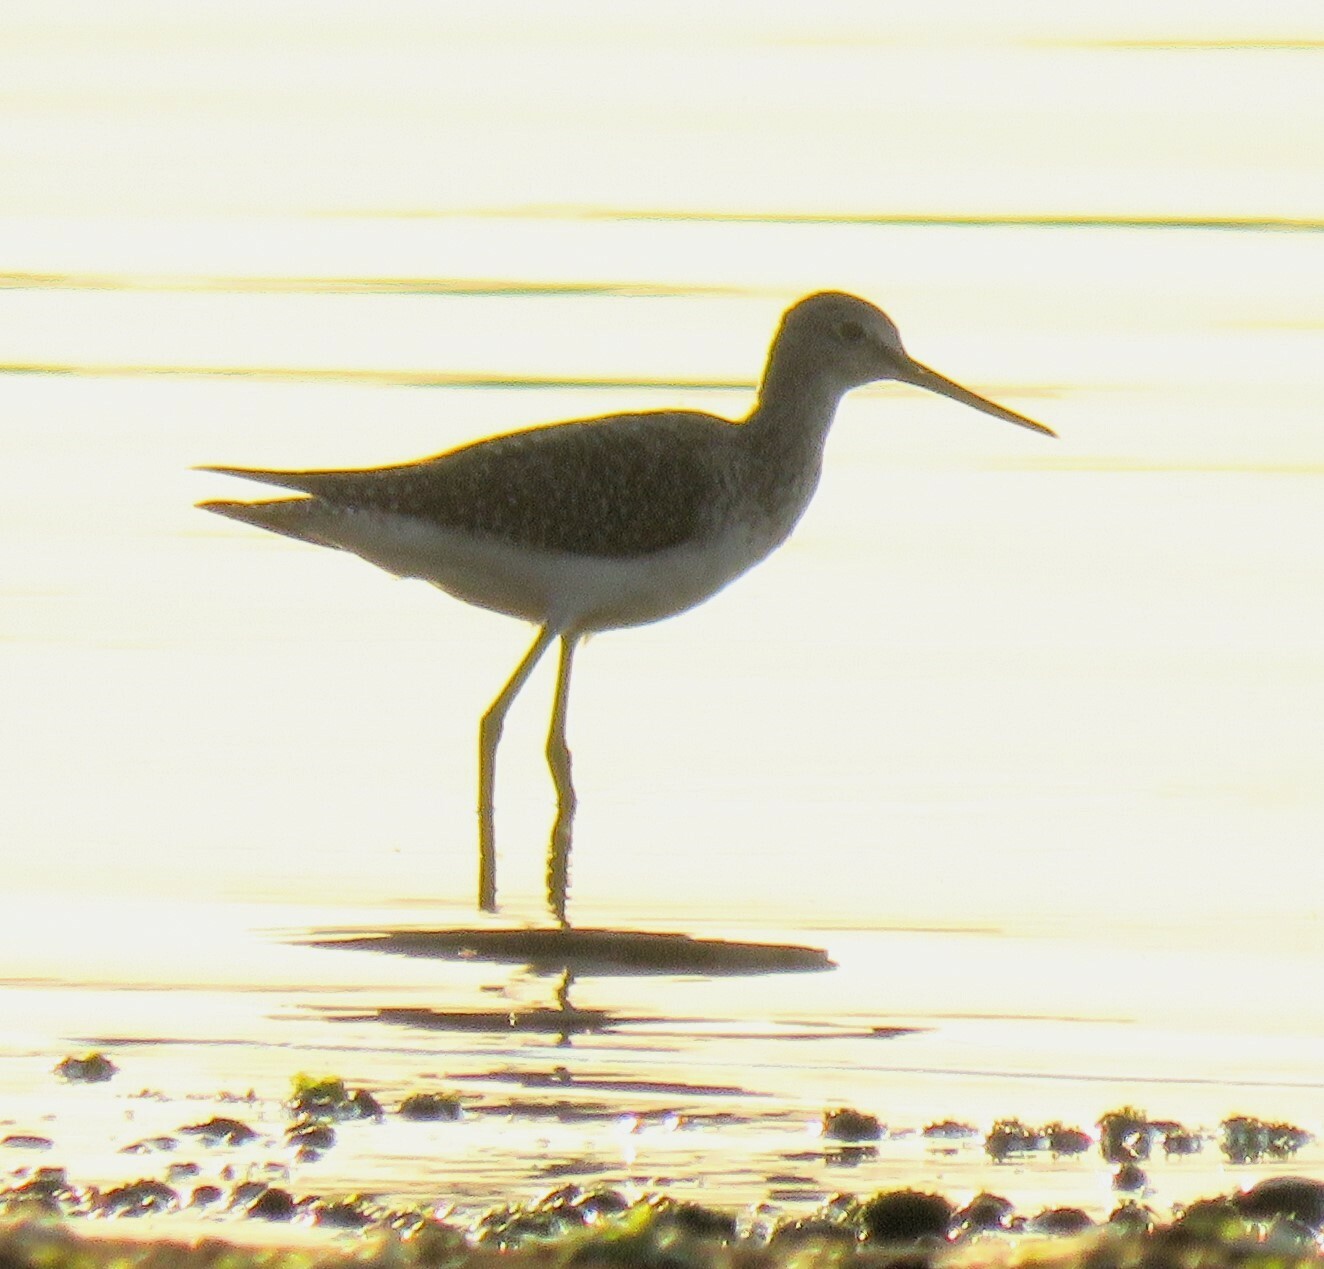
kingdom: Animalia
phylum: Chordata
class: Aves
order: Charadriiformes
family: Scolopacidae
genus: Tringa
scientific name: Tringa melanoleuca
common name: Greater yellowlegs
